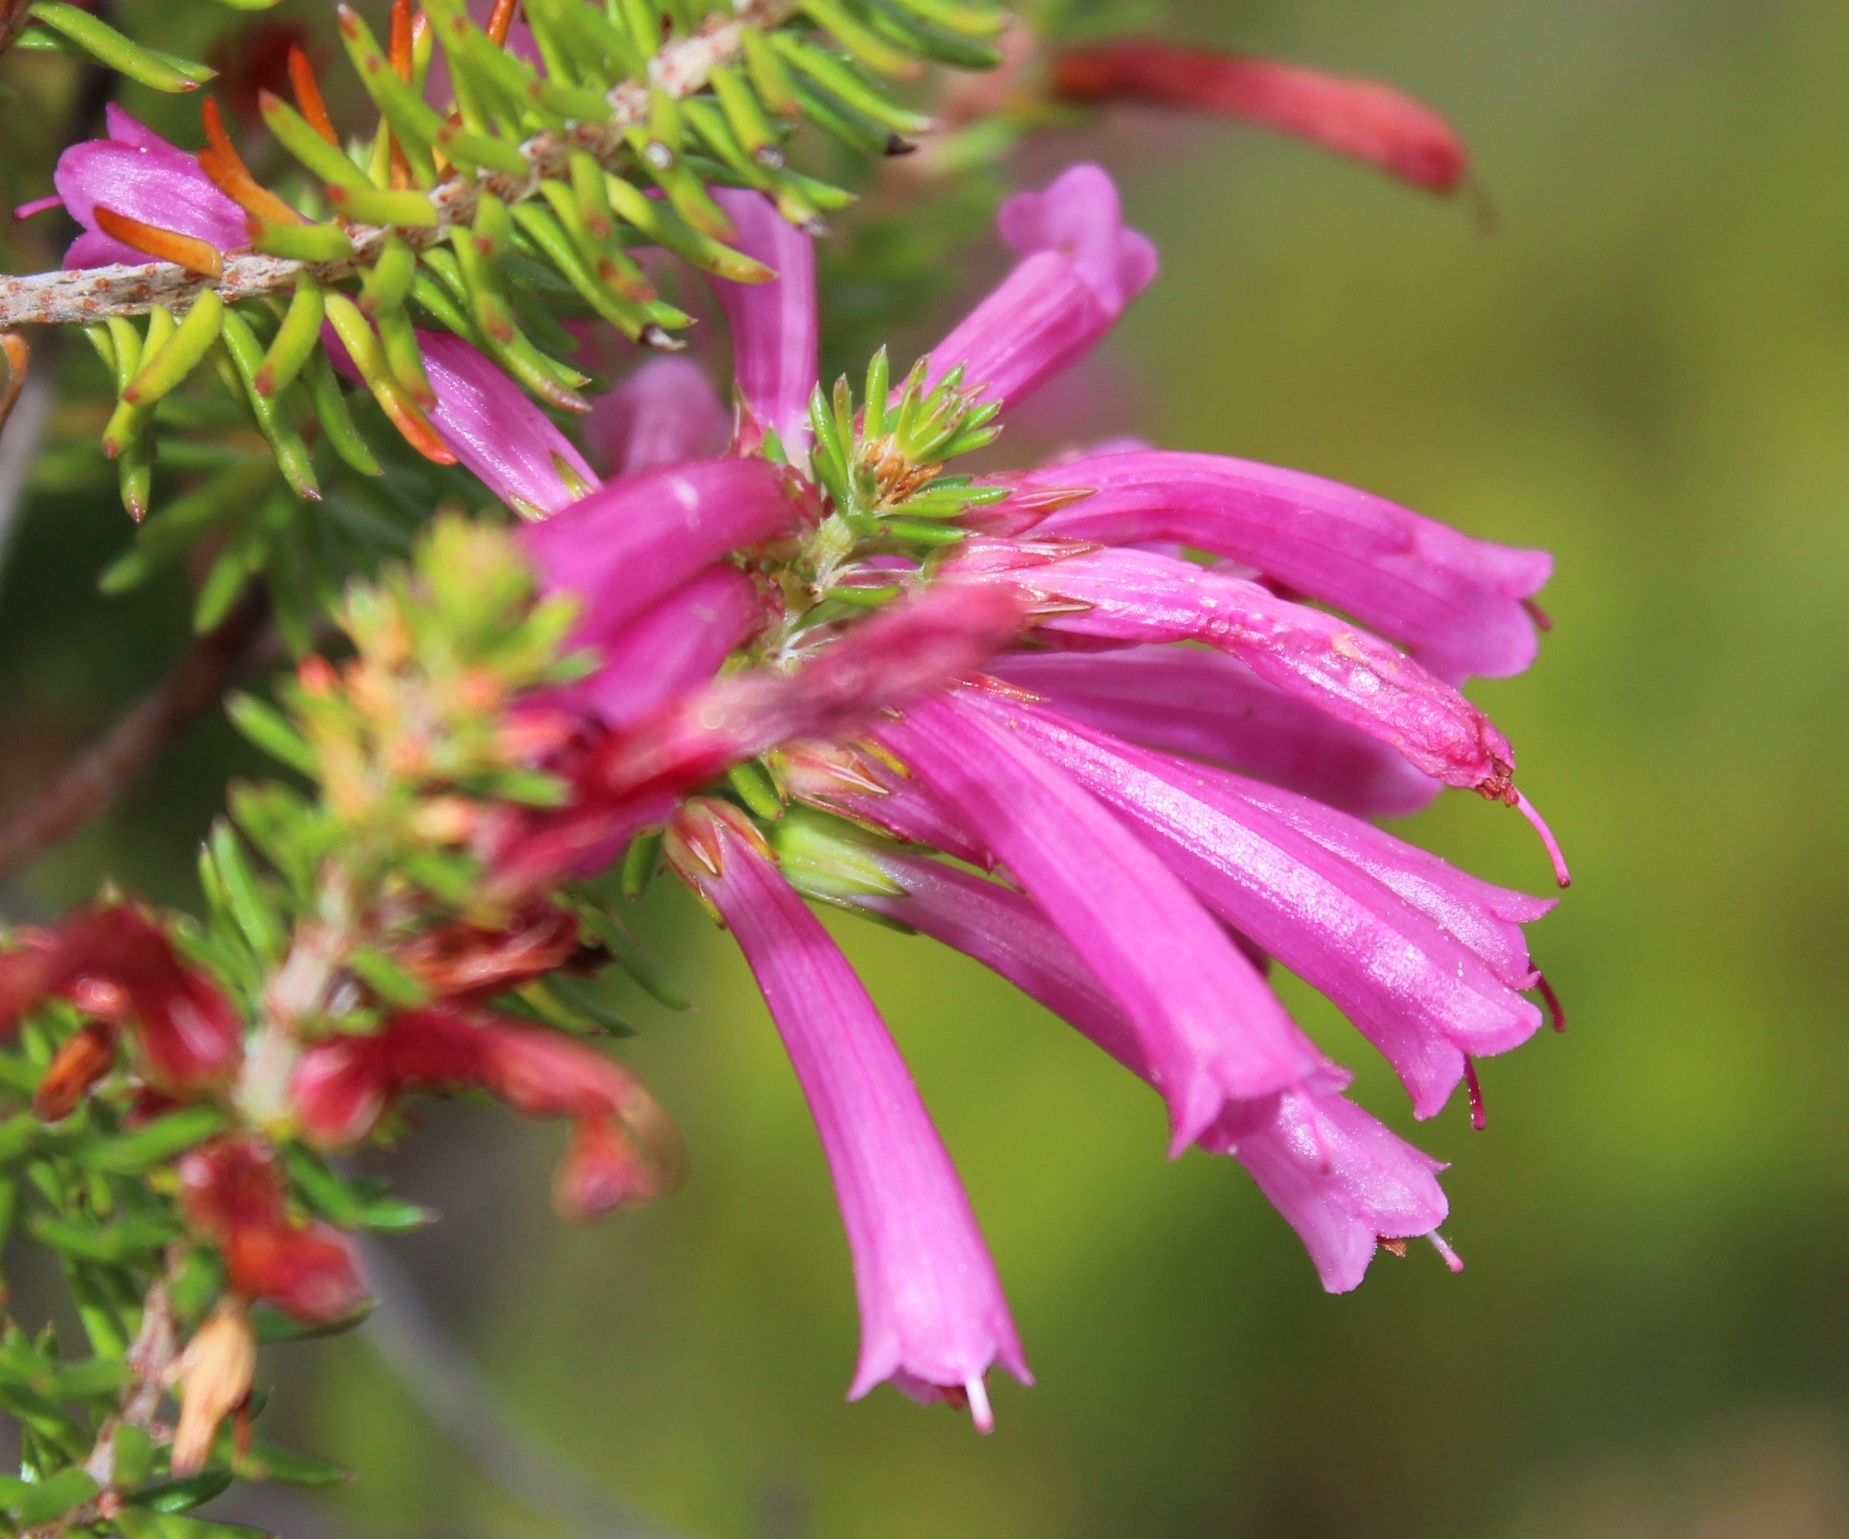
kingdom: Plantae
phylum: Tracheophyta
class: Magnoliopsida
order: Ericales
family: Ericaceae
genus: Erica
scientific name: Erica abietina
